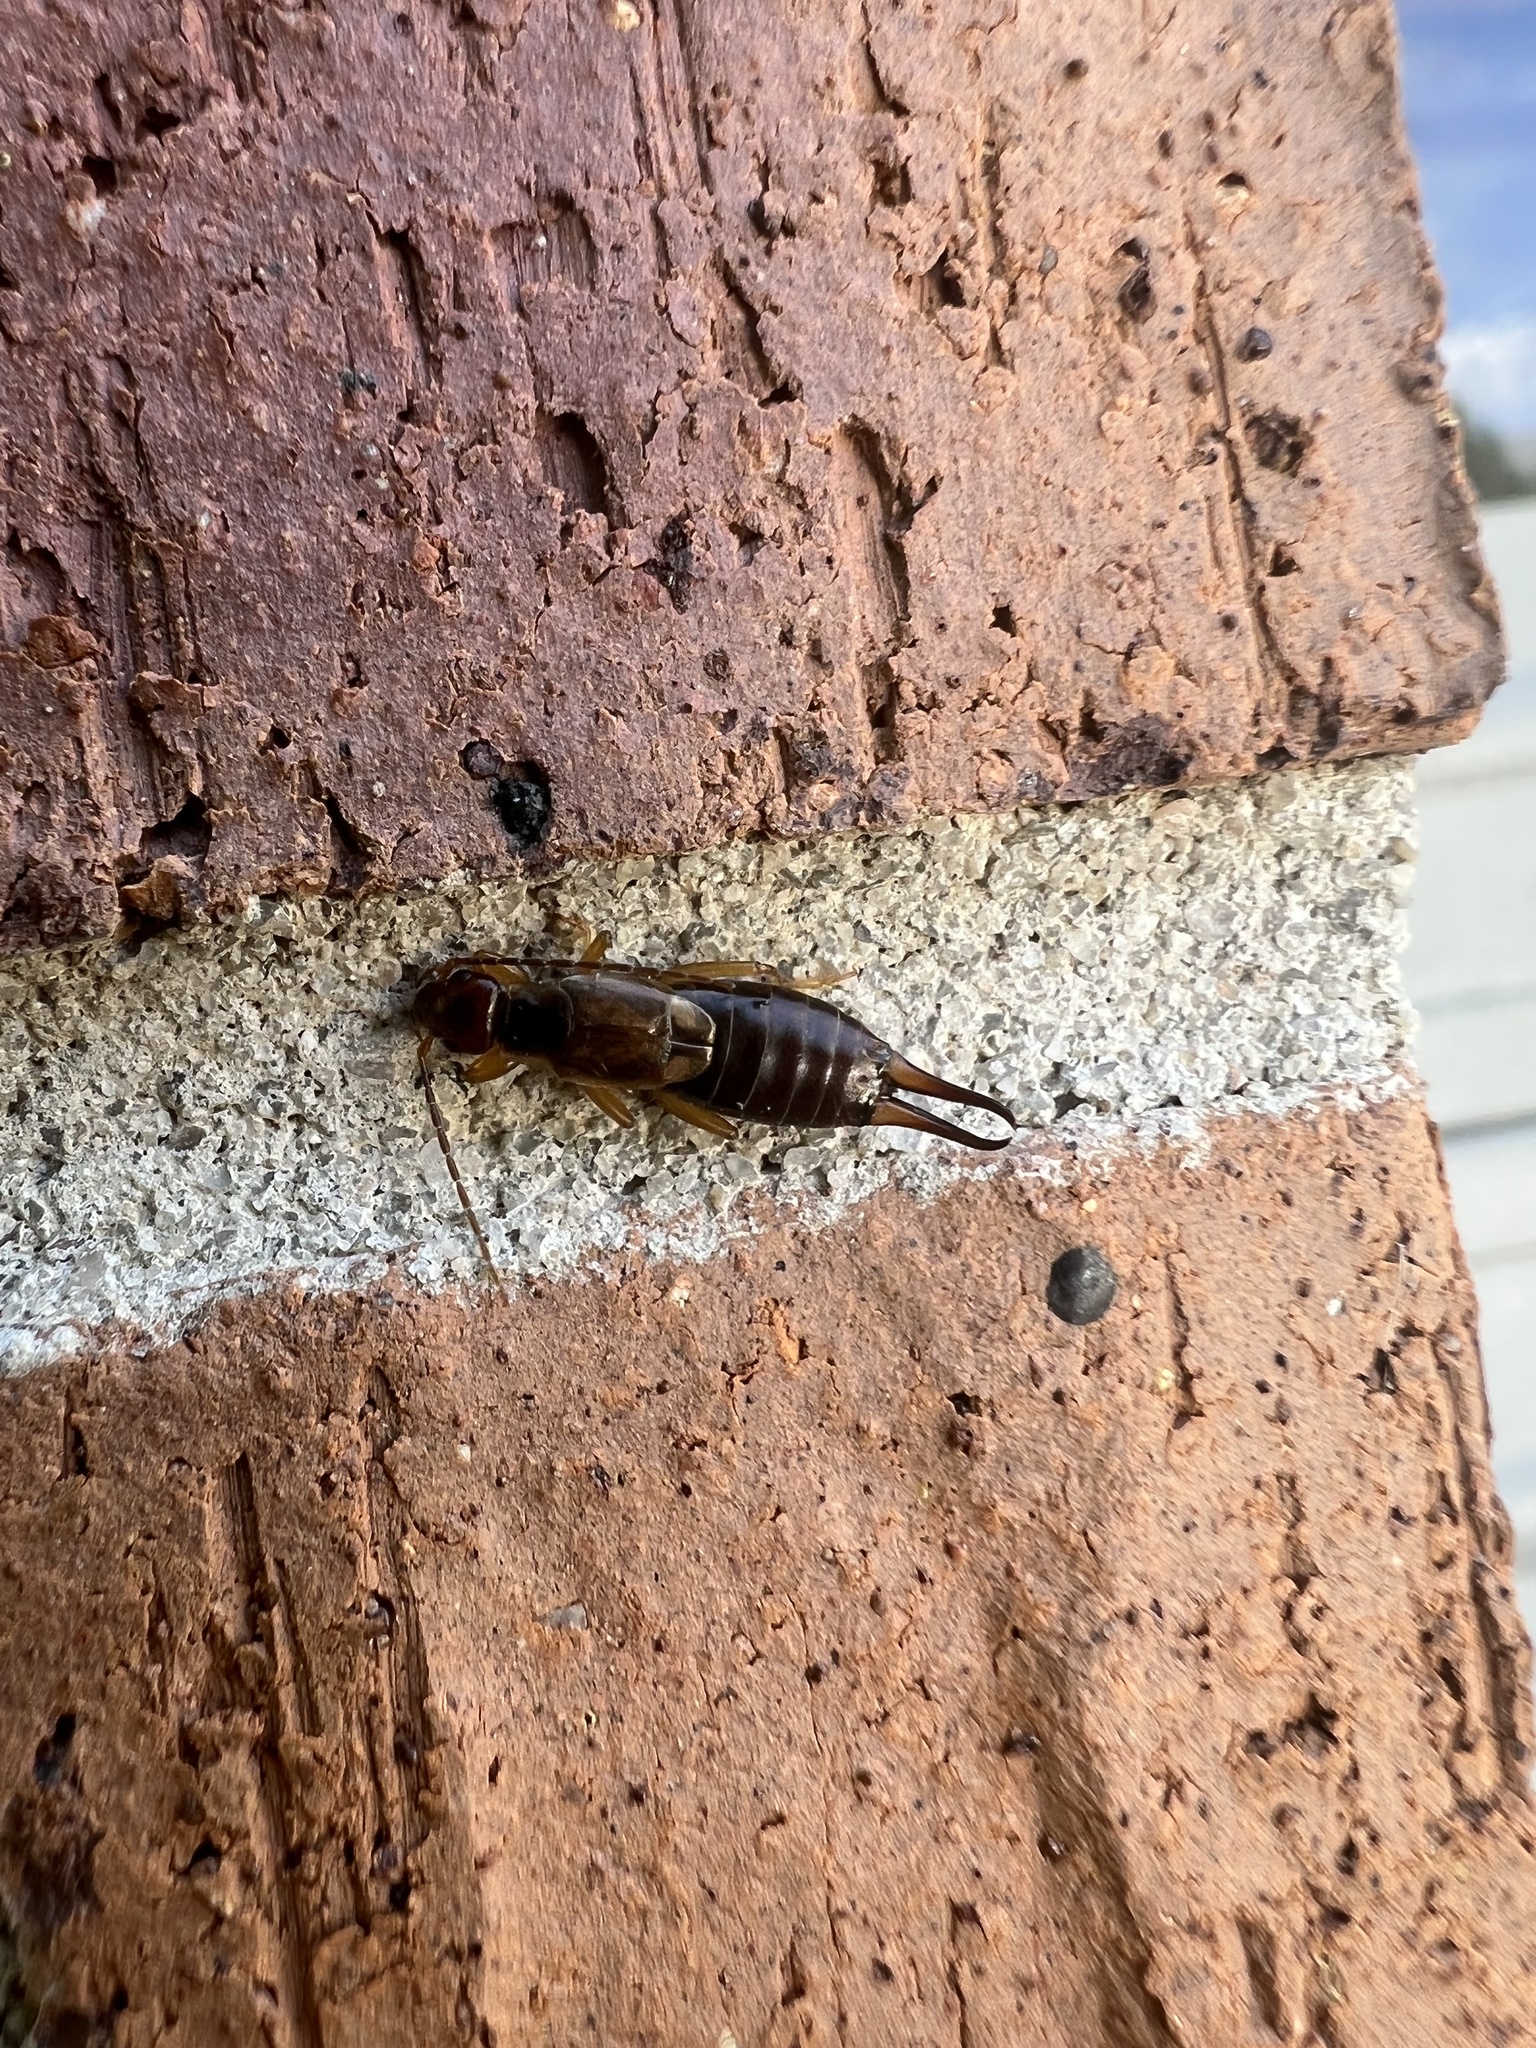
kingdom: Animalia
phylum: Arthropoda
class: Insecta
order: Dermaptera
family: Forficulidae
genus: Forficula
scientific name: Forficula
